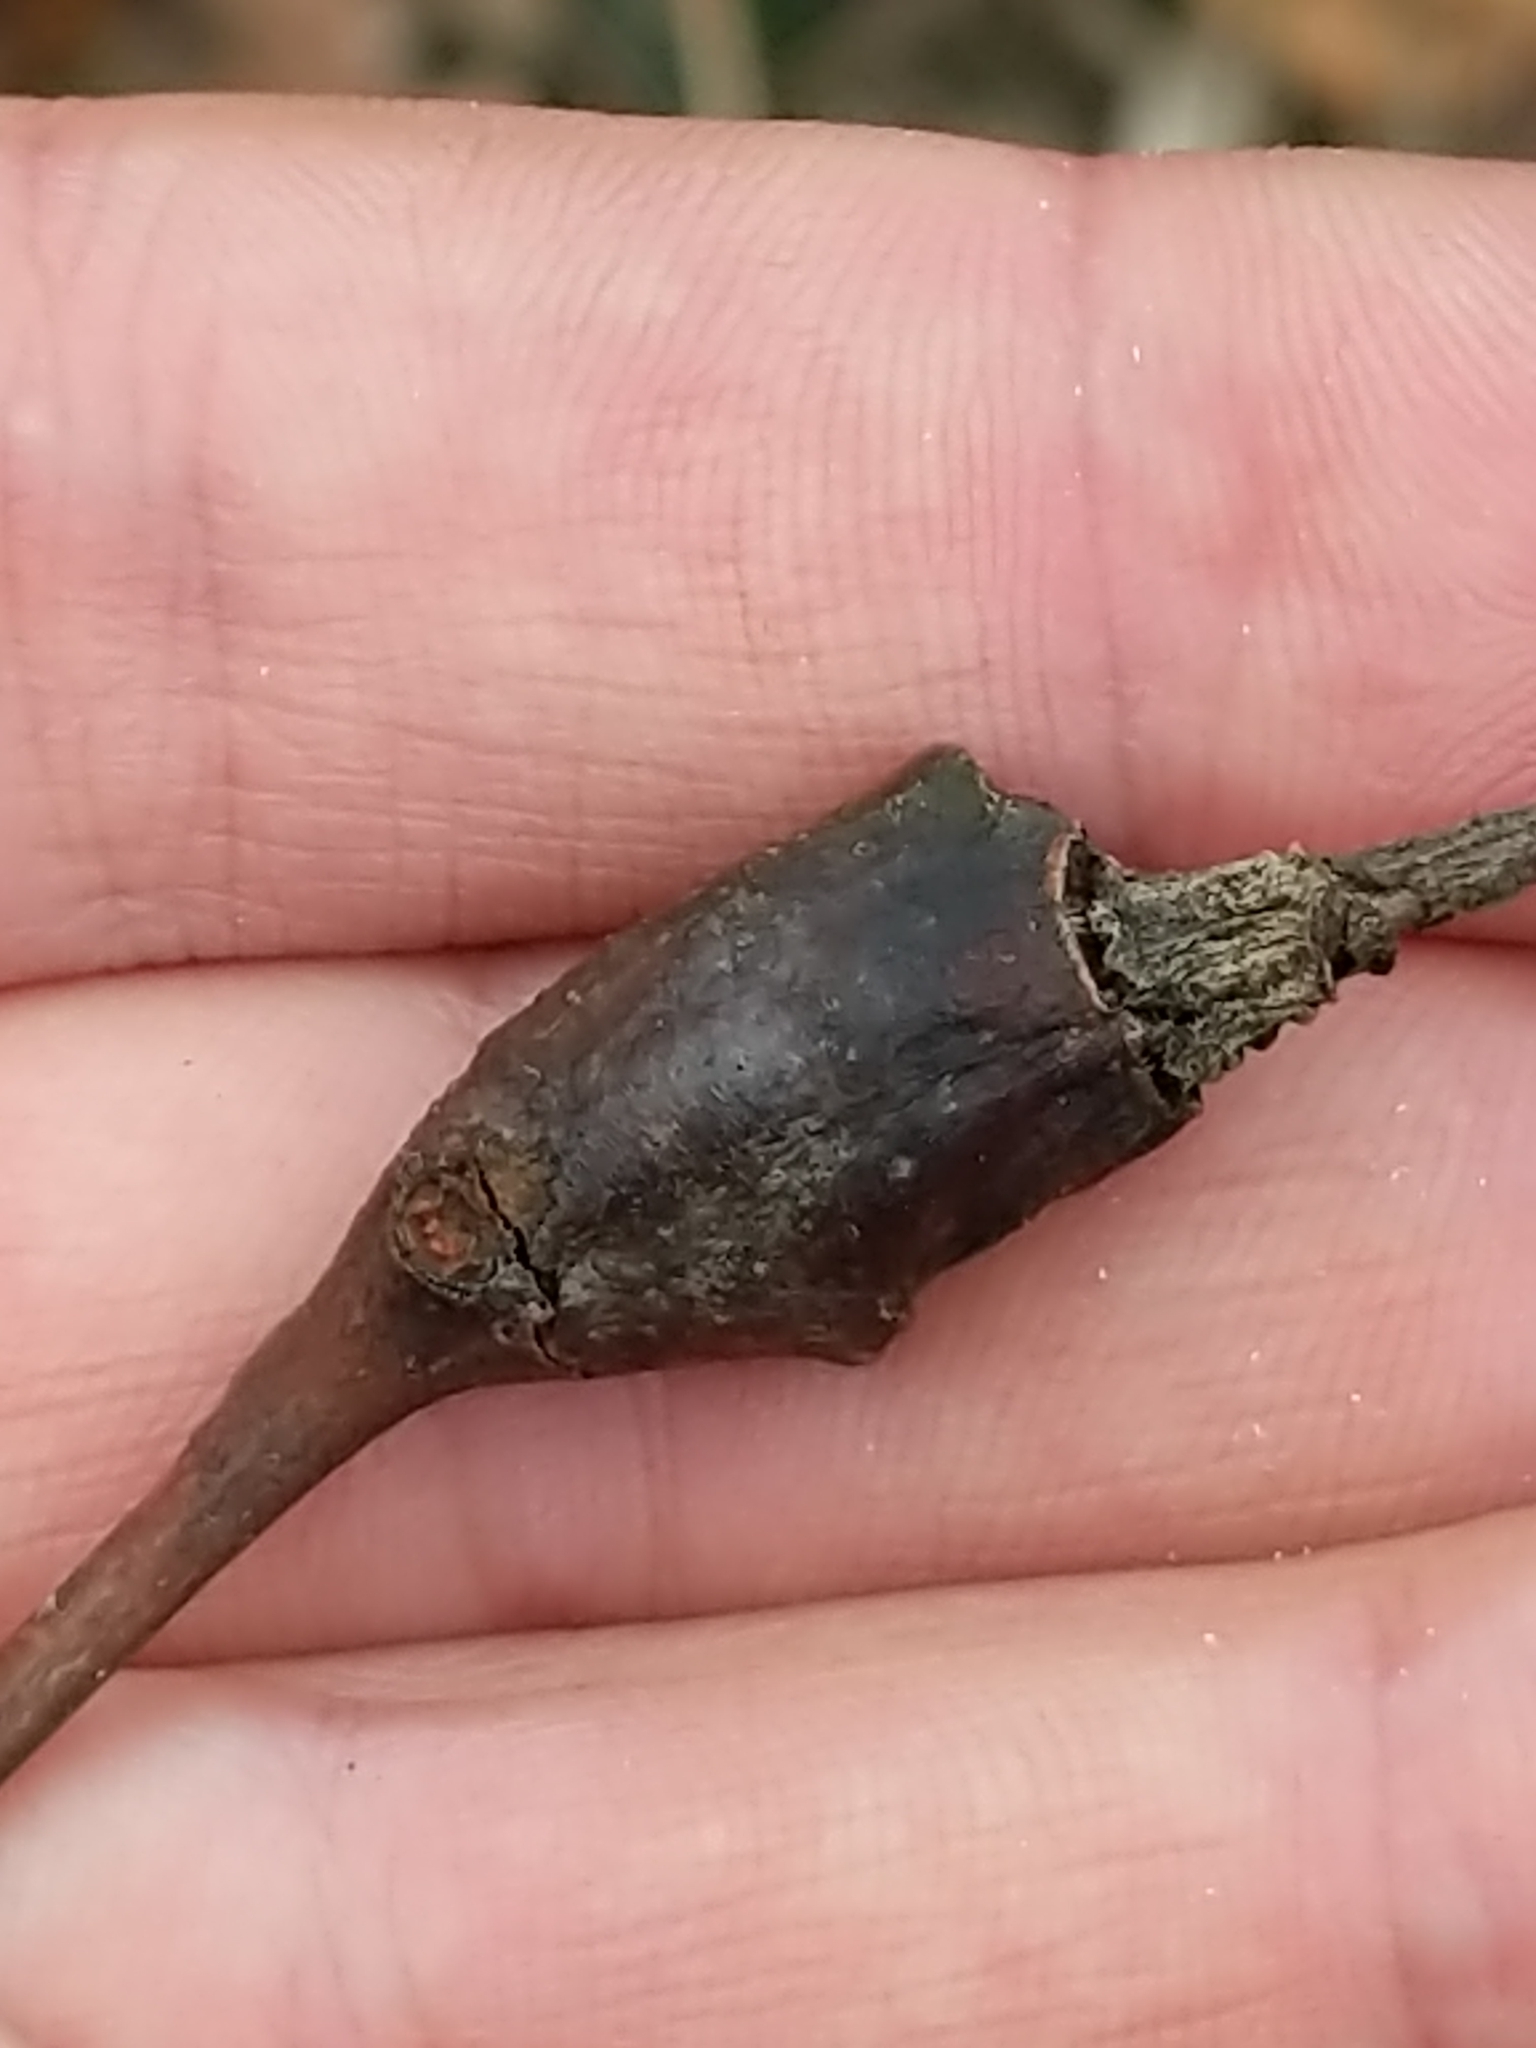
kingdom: Animalia
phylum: Arthropoda
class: Insecta
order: Diptera
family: Cecidomyiidae
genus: Thecodiplosis
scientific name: Thecodiplosis pinirigidae
